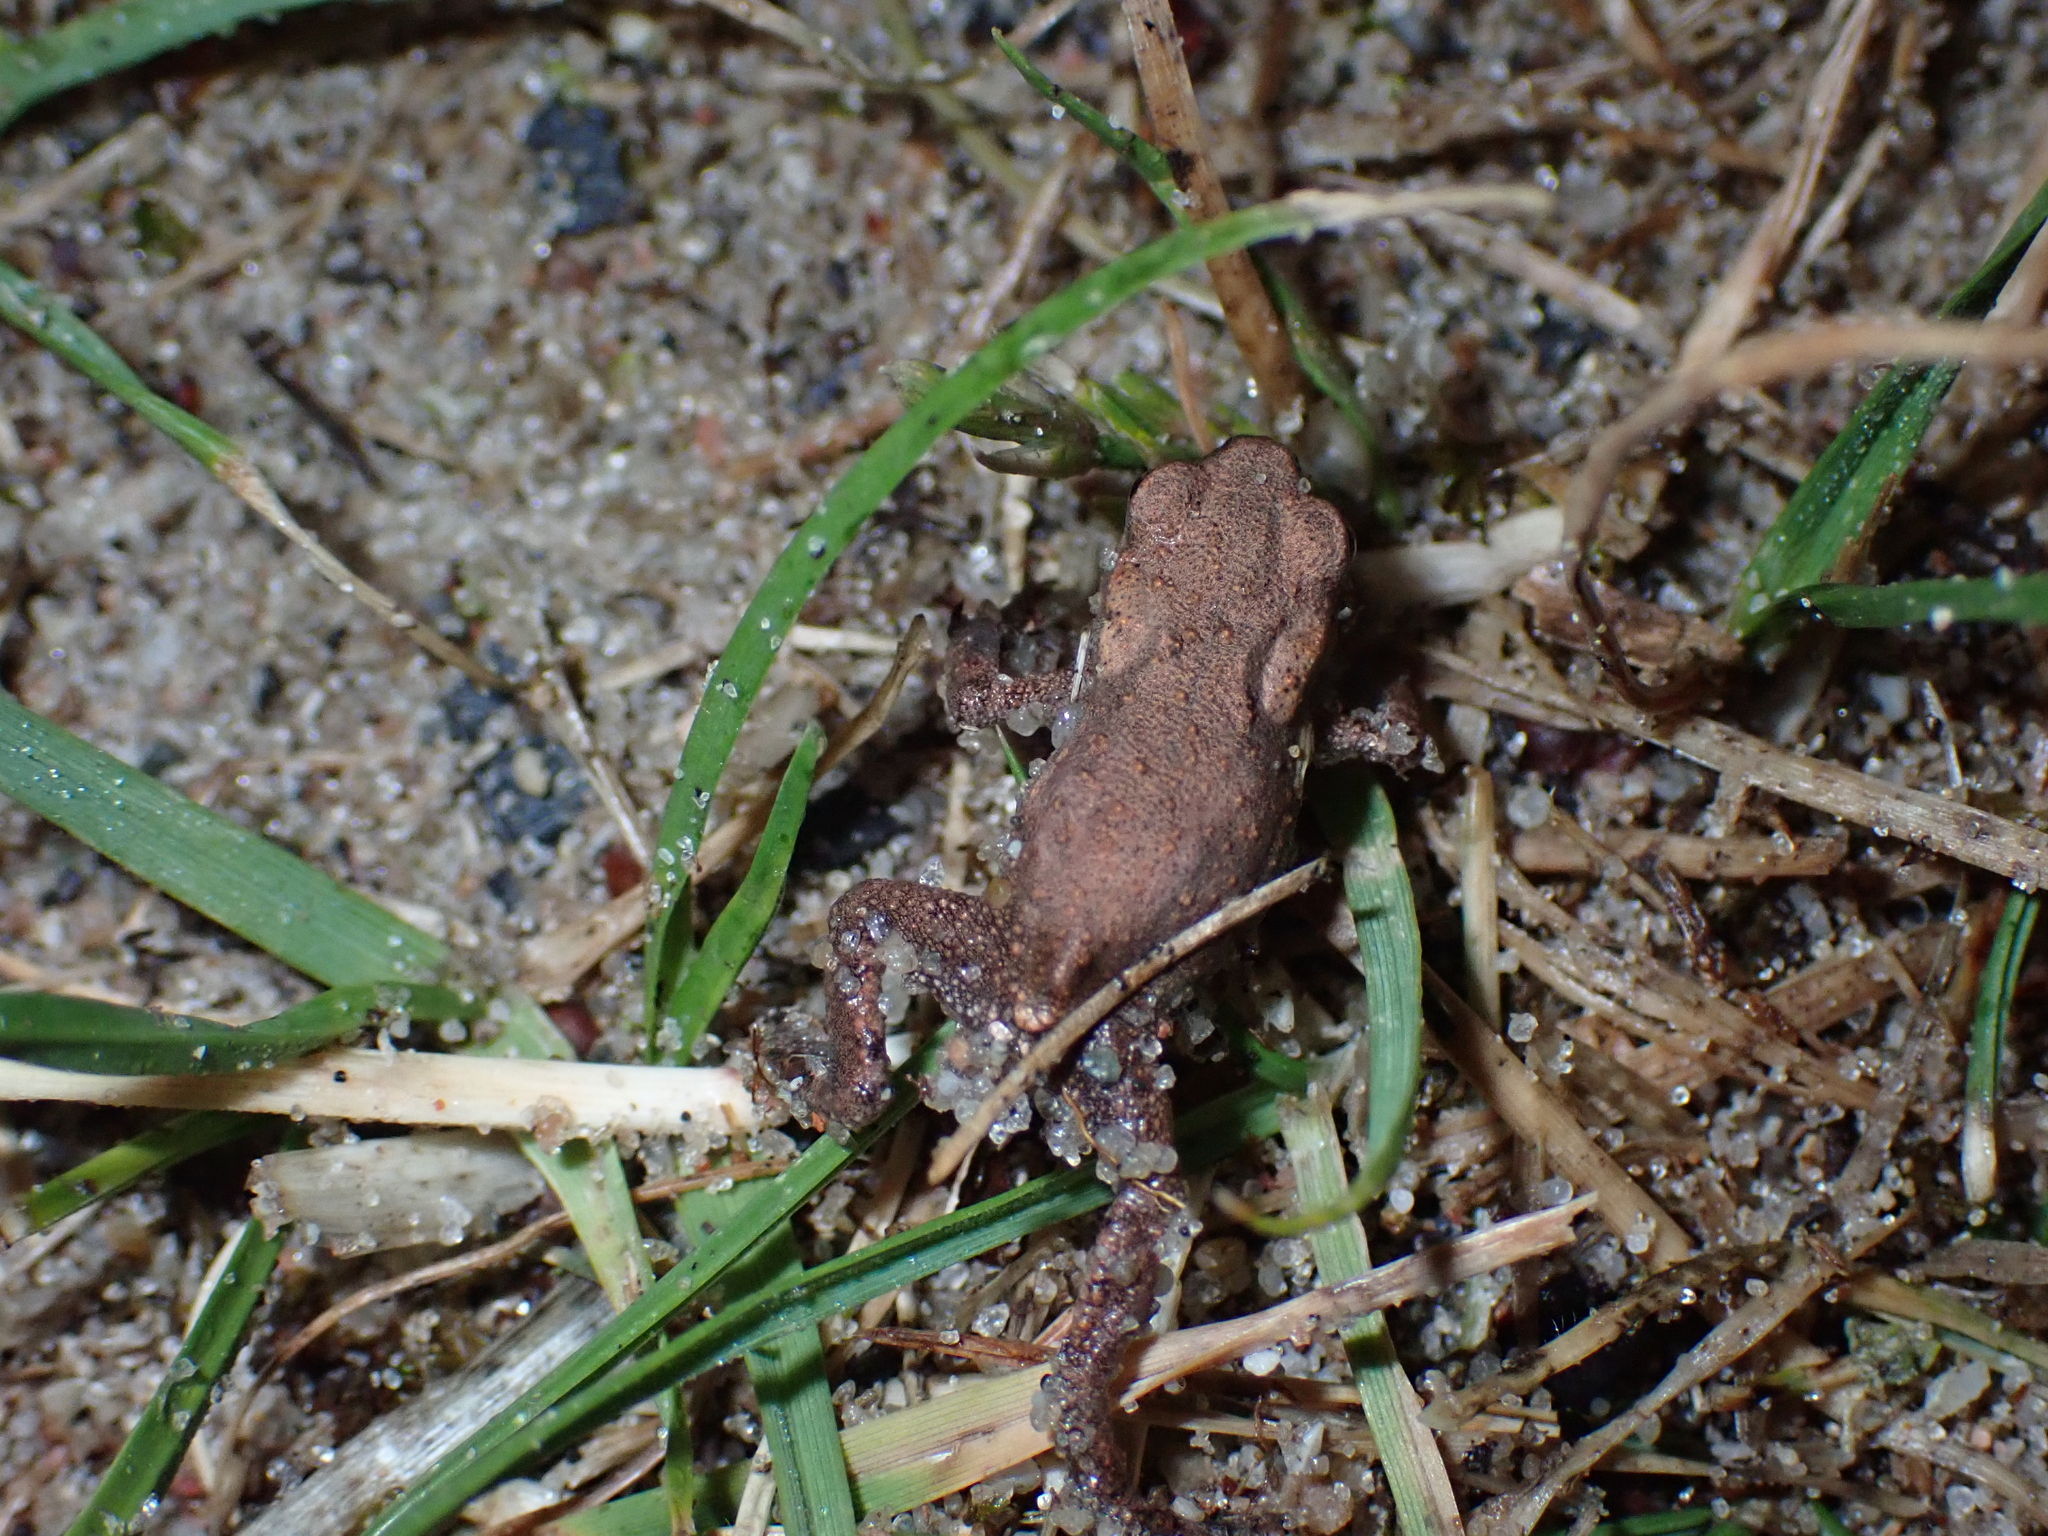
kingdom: Animalia
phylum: Chordata
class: Amphibia
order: Anura
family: Bufonidae
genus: Bufo
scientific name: Bufo bufo
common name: Common toad
